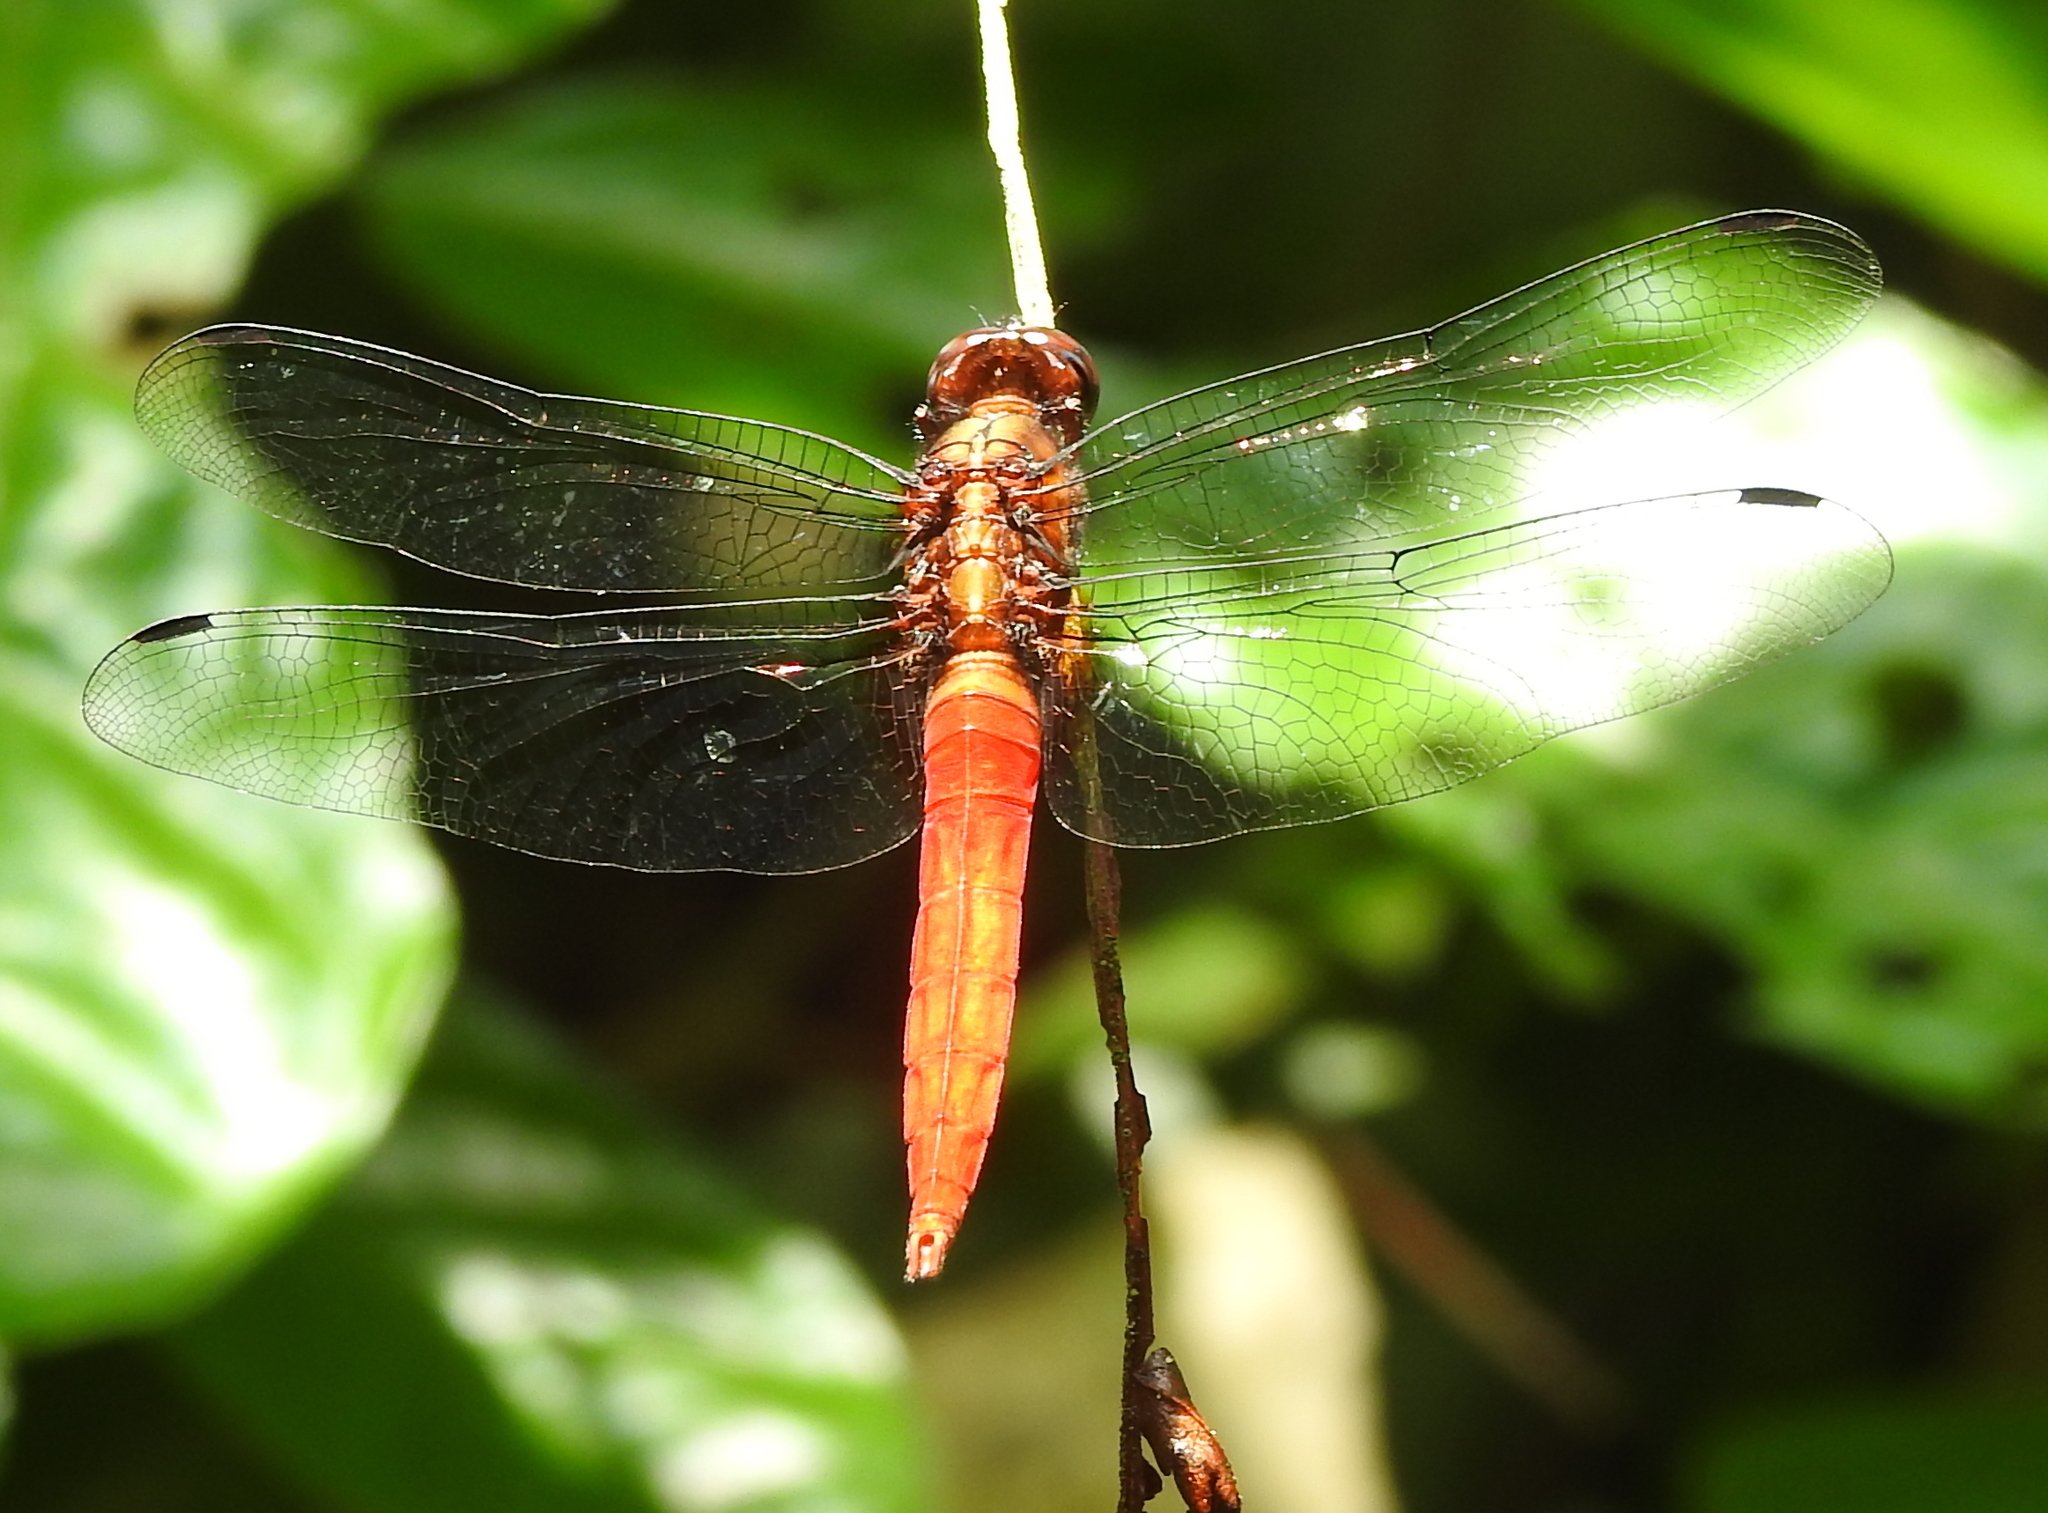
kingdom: Animalia
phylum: Arthropoda
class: Insecta
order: Odonata
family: Libellulidae
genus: Orthetrum
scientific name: Orthetrum chrysis
